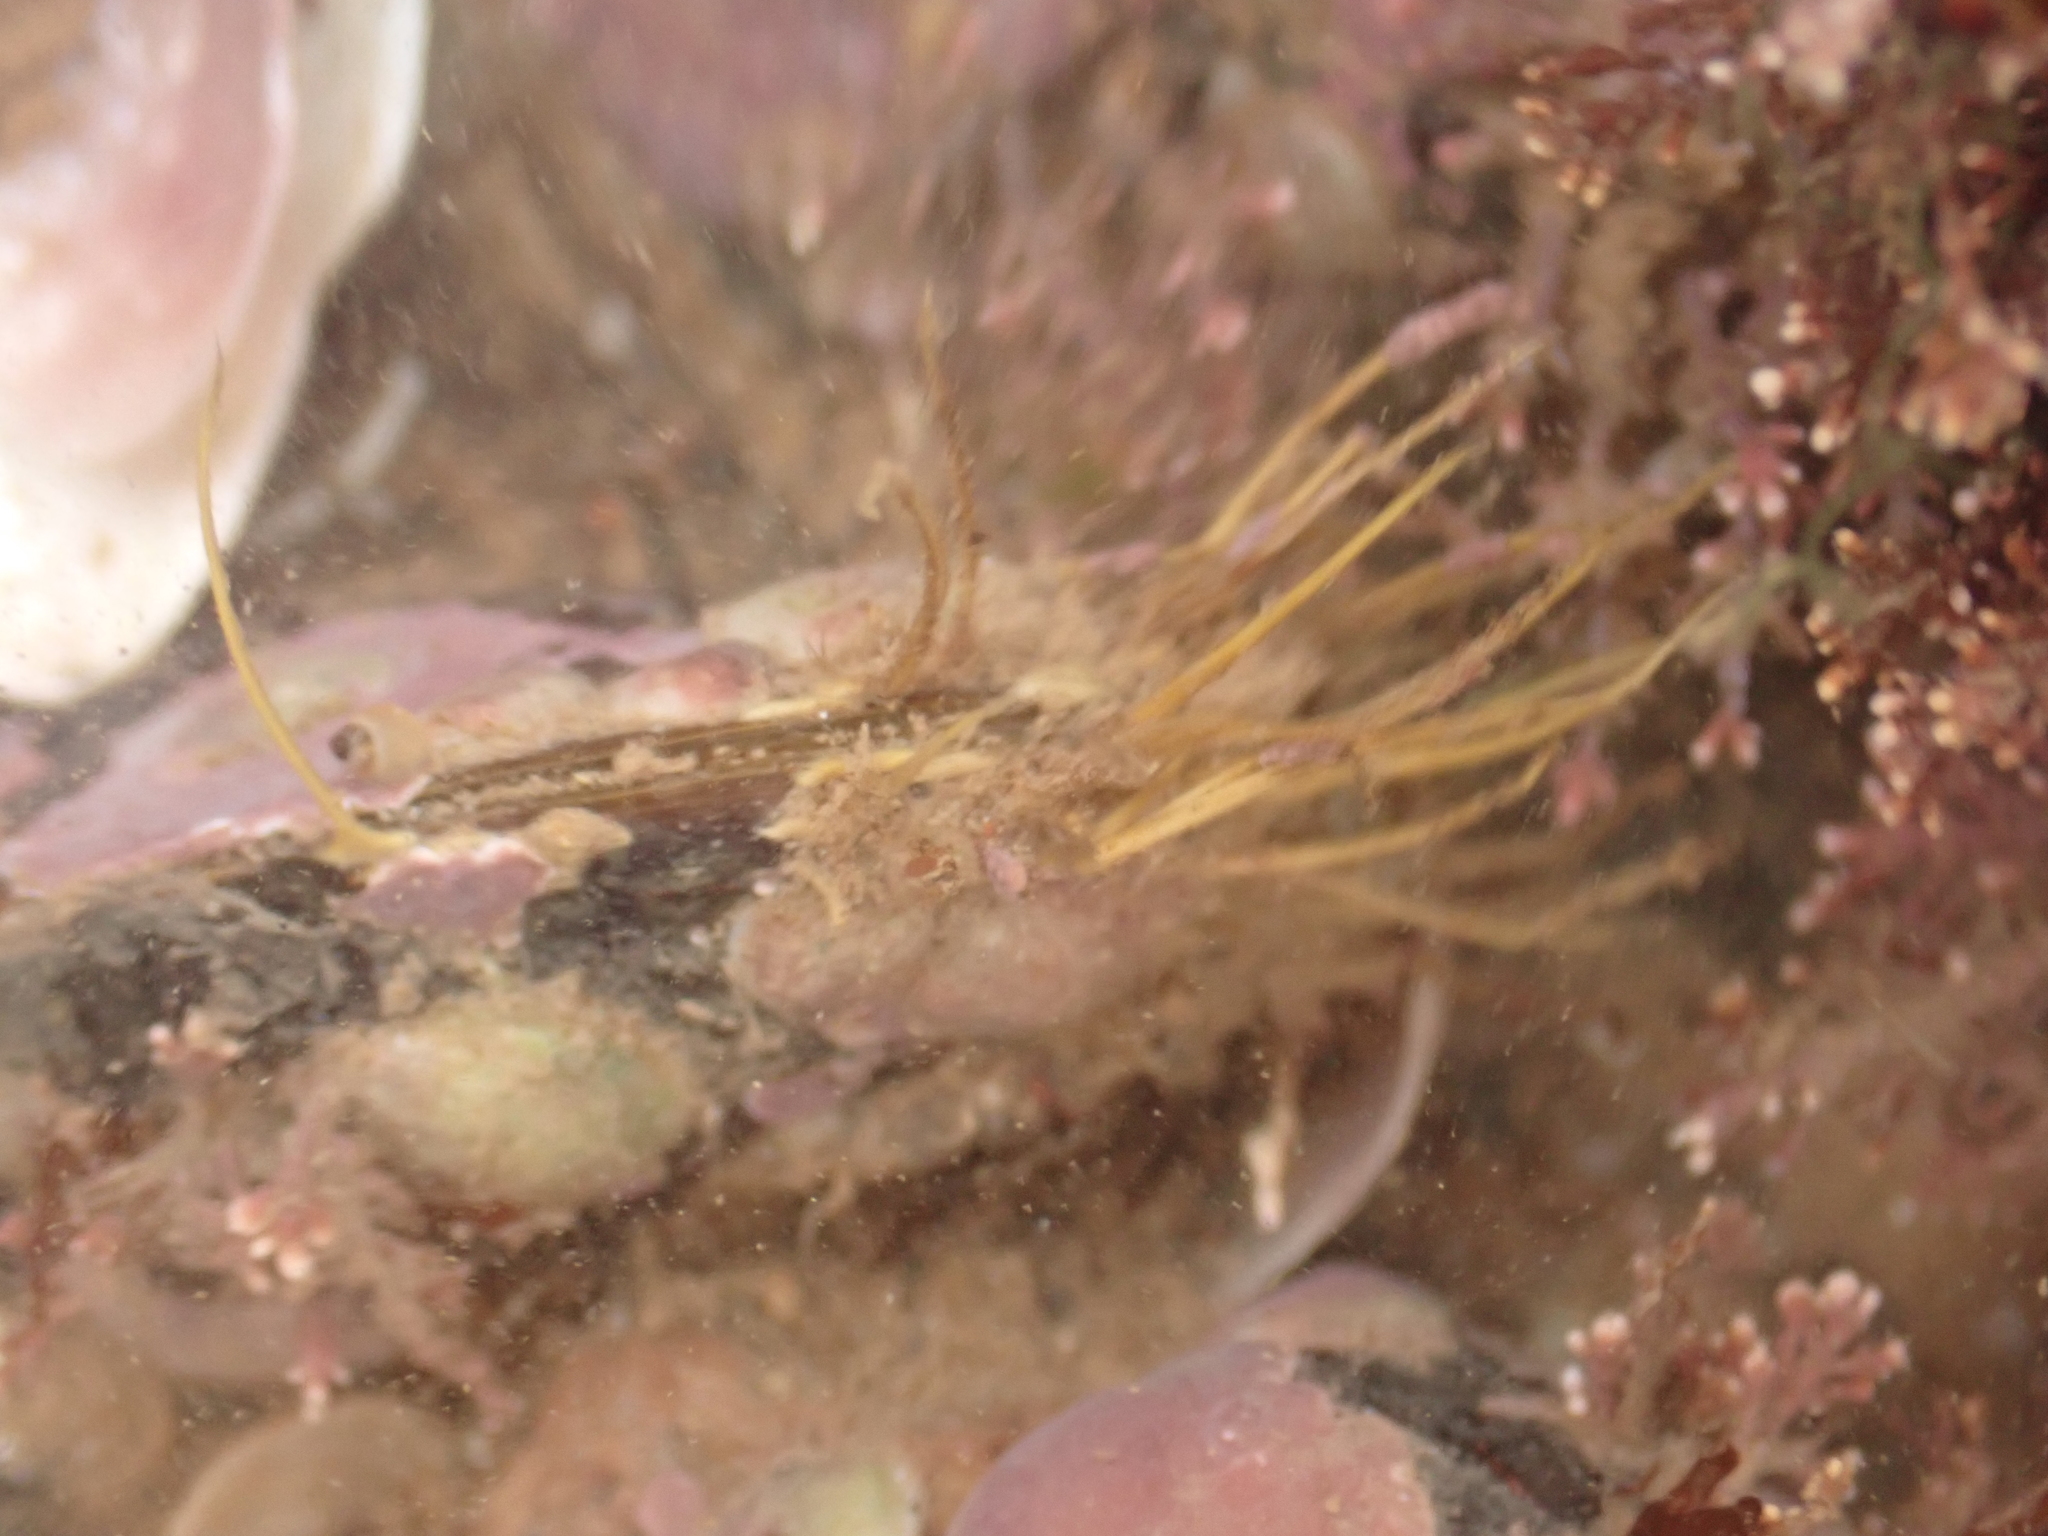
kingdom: Animalia
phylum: Mollusca
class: Bivalvia
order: Mytilida
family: Mytilidae
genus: Modiolus
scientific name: Modiolus modiolus
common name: Horse-mussel
